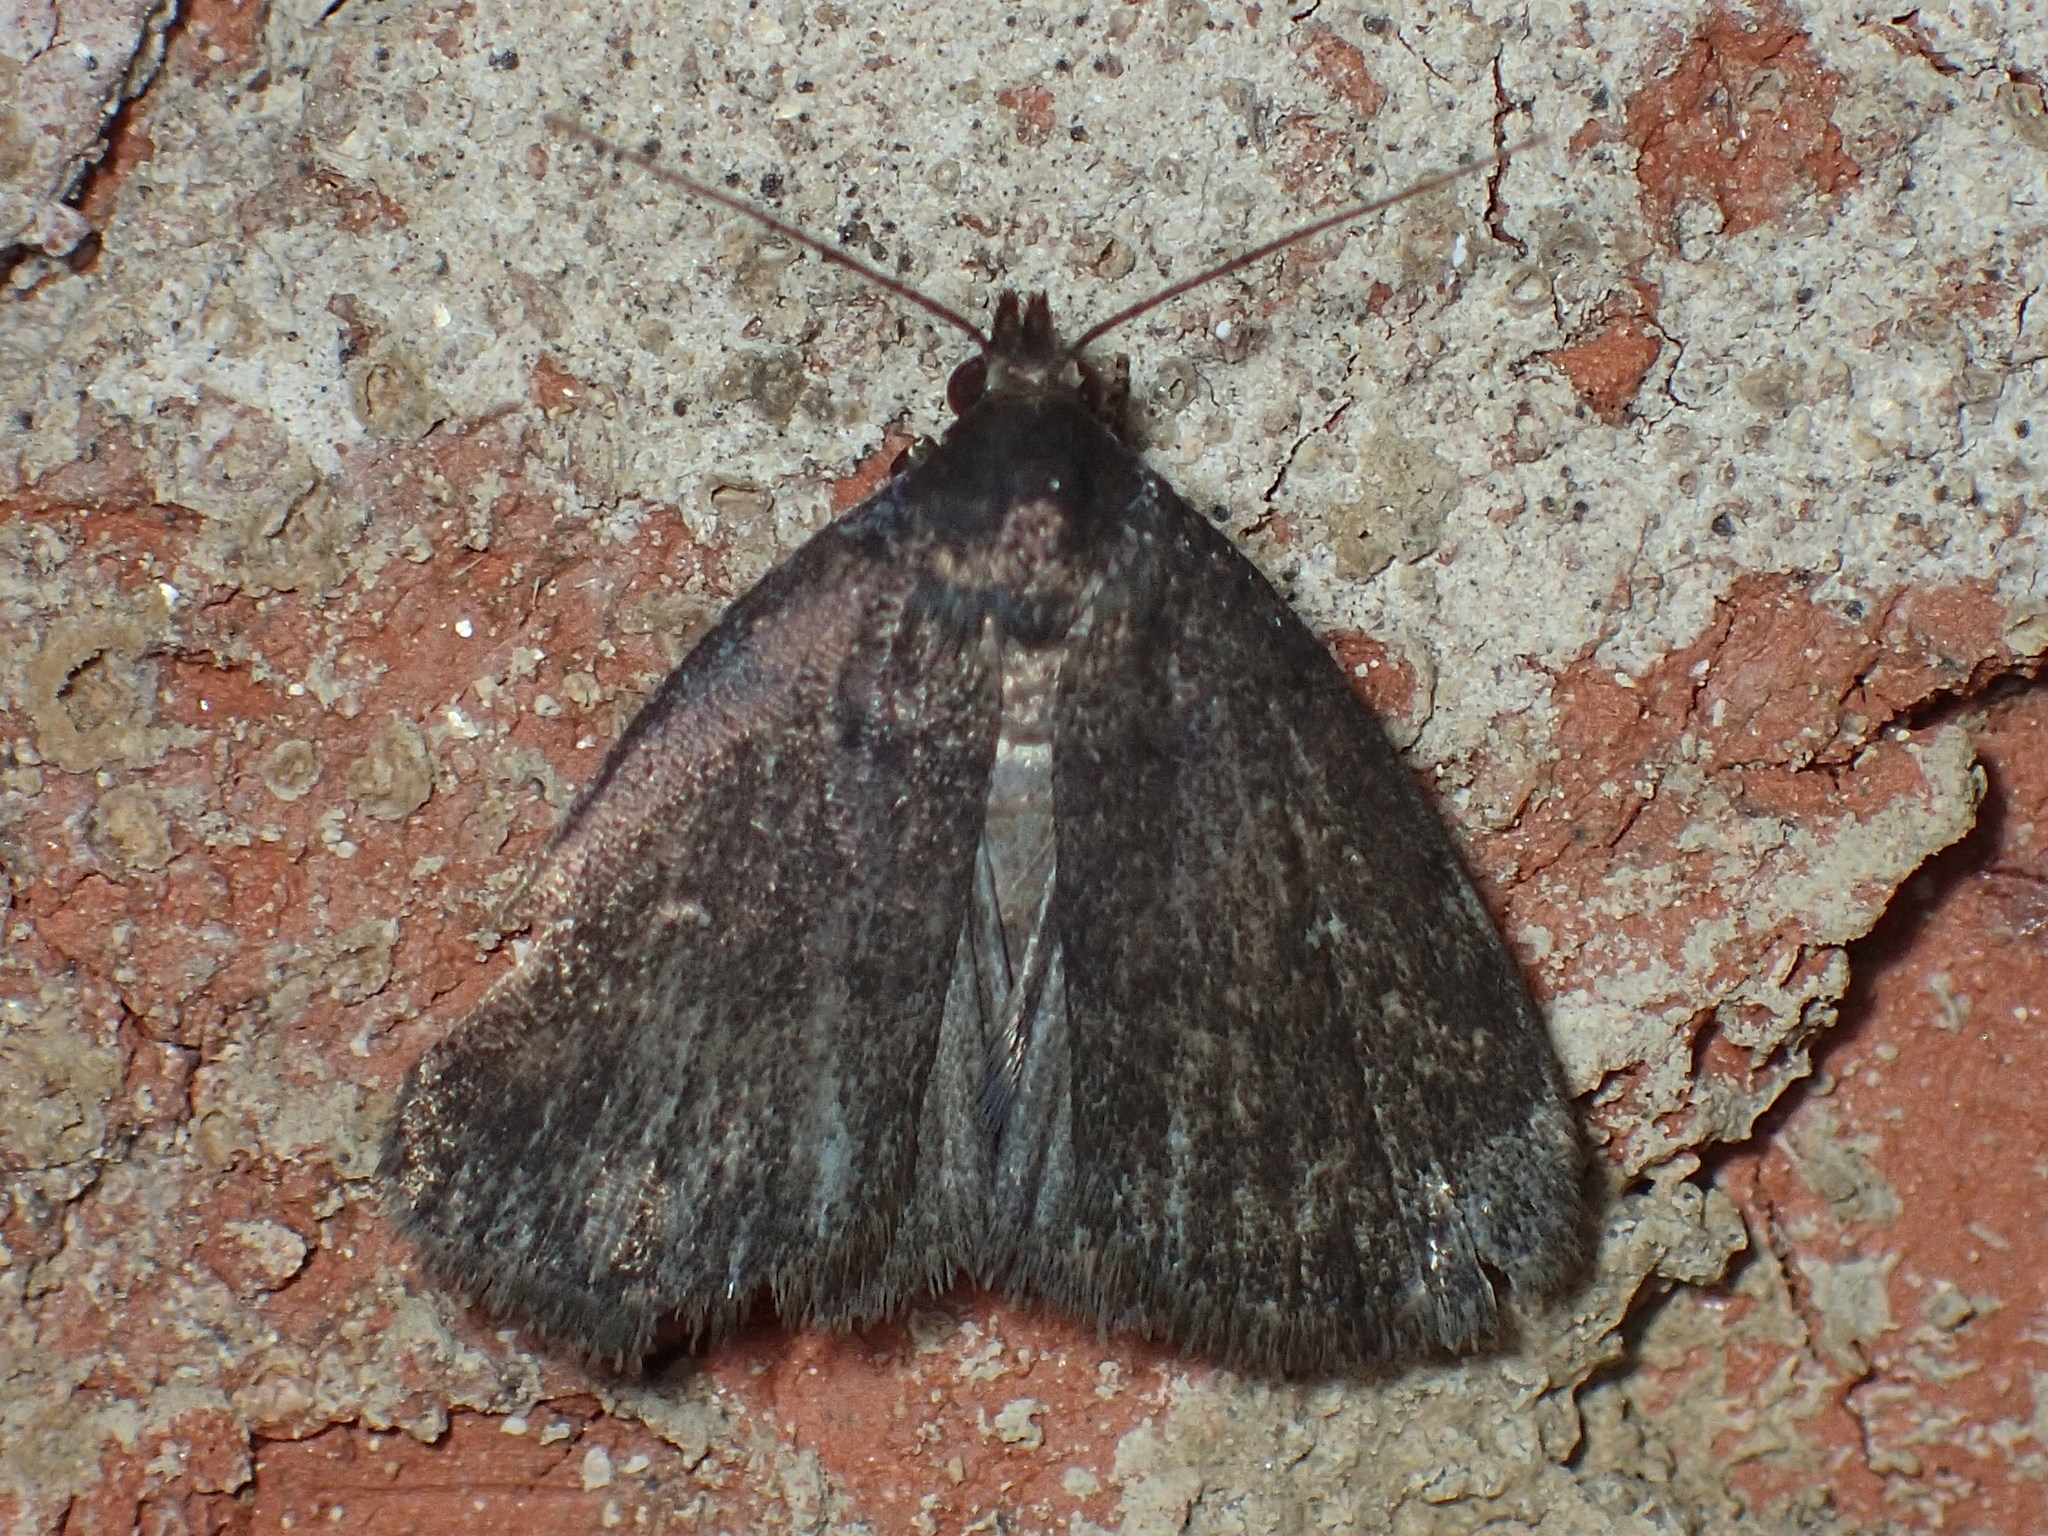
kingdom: Animalia
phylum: Arthropoda
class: Insecta
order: Lepidoptera
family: Erebidae
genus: Idia
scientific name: Idia rotundalis
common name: Rotund idia moth
